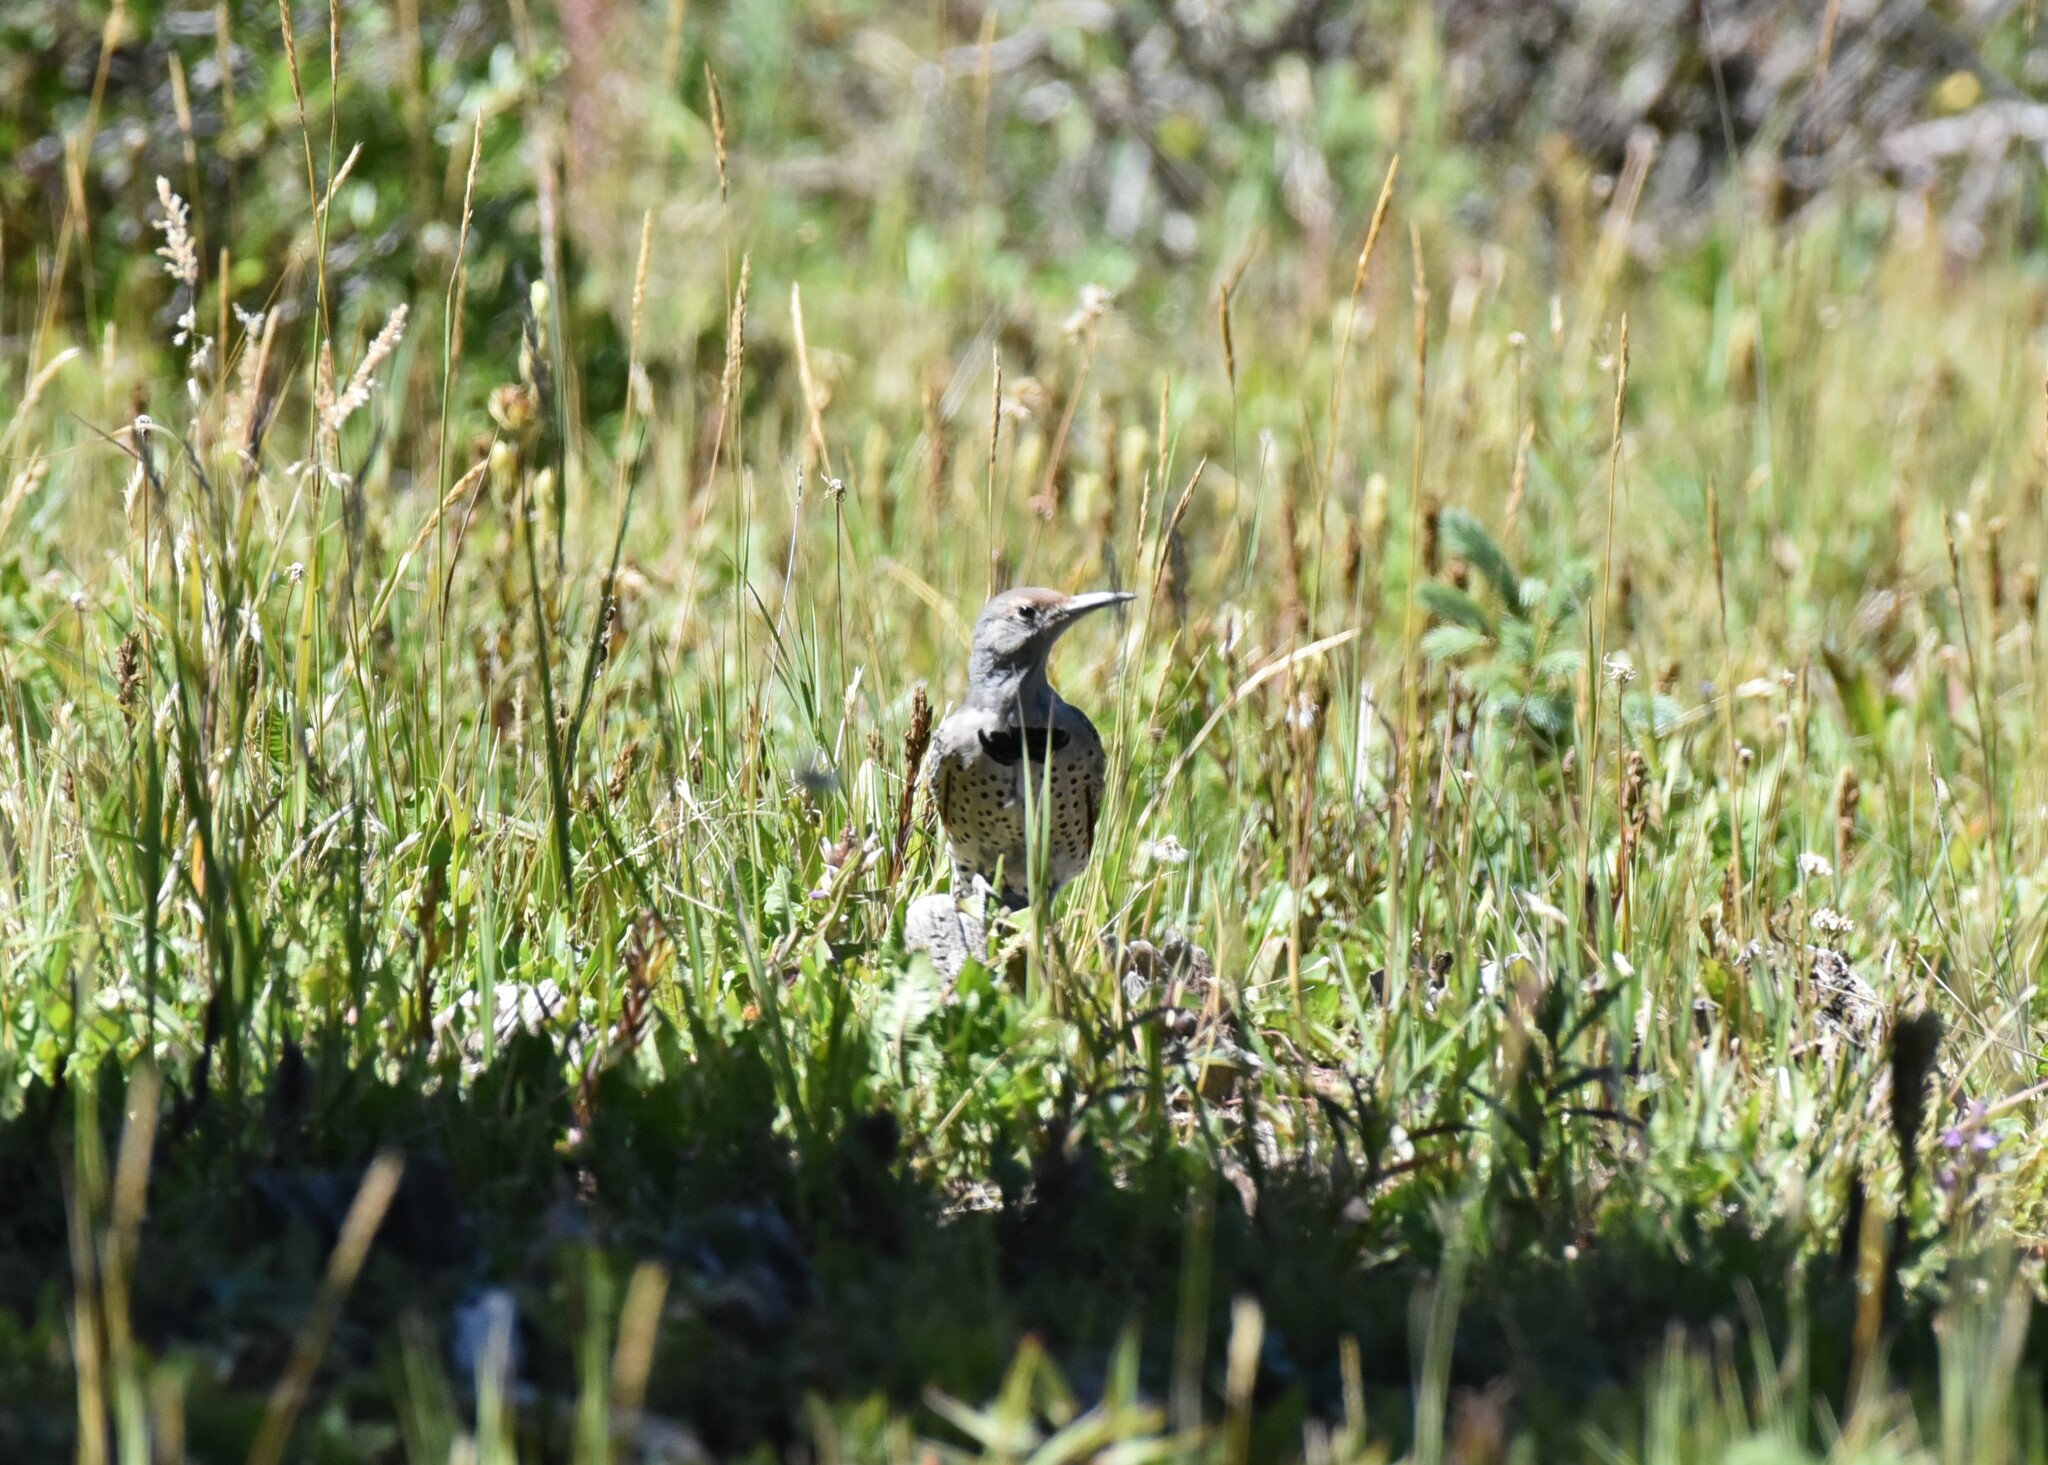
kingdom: Animalia
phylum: Chordata
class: Aves
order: Piciformes
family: Picidae
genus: Colaptes
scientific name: Colaptes auratus
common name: Northern flicker
